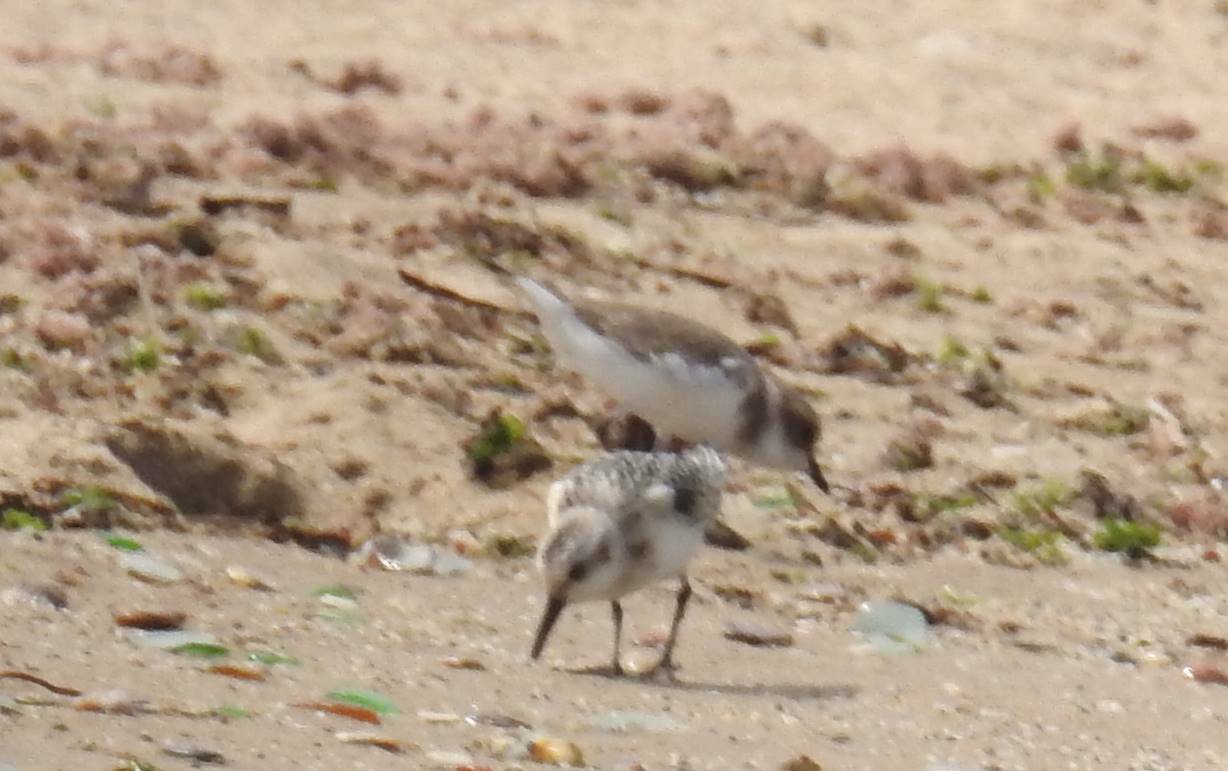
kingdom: Animalia
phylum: Chordata
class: Aves
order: Charadriiformes
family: Charadriidae
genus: Charadrius
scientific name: Charadrius alexandrinus
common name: Kentish plover
